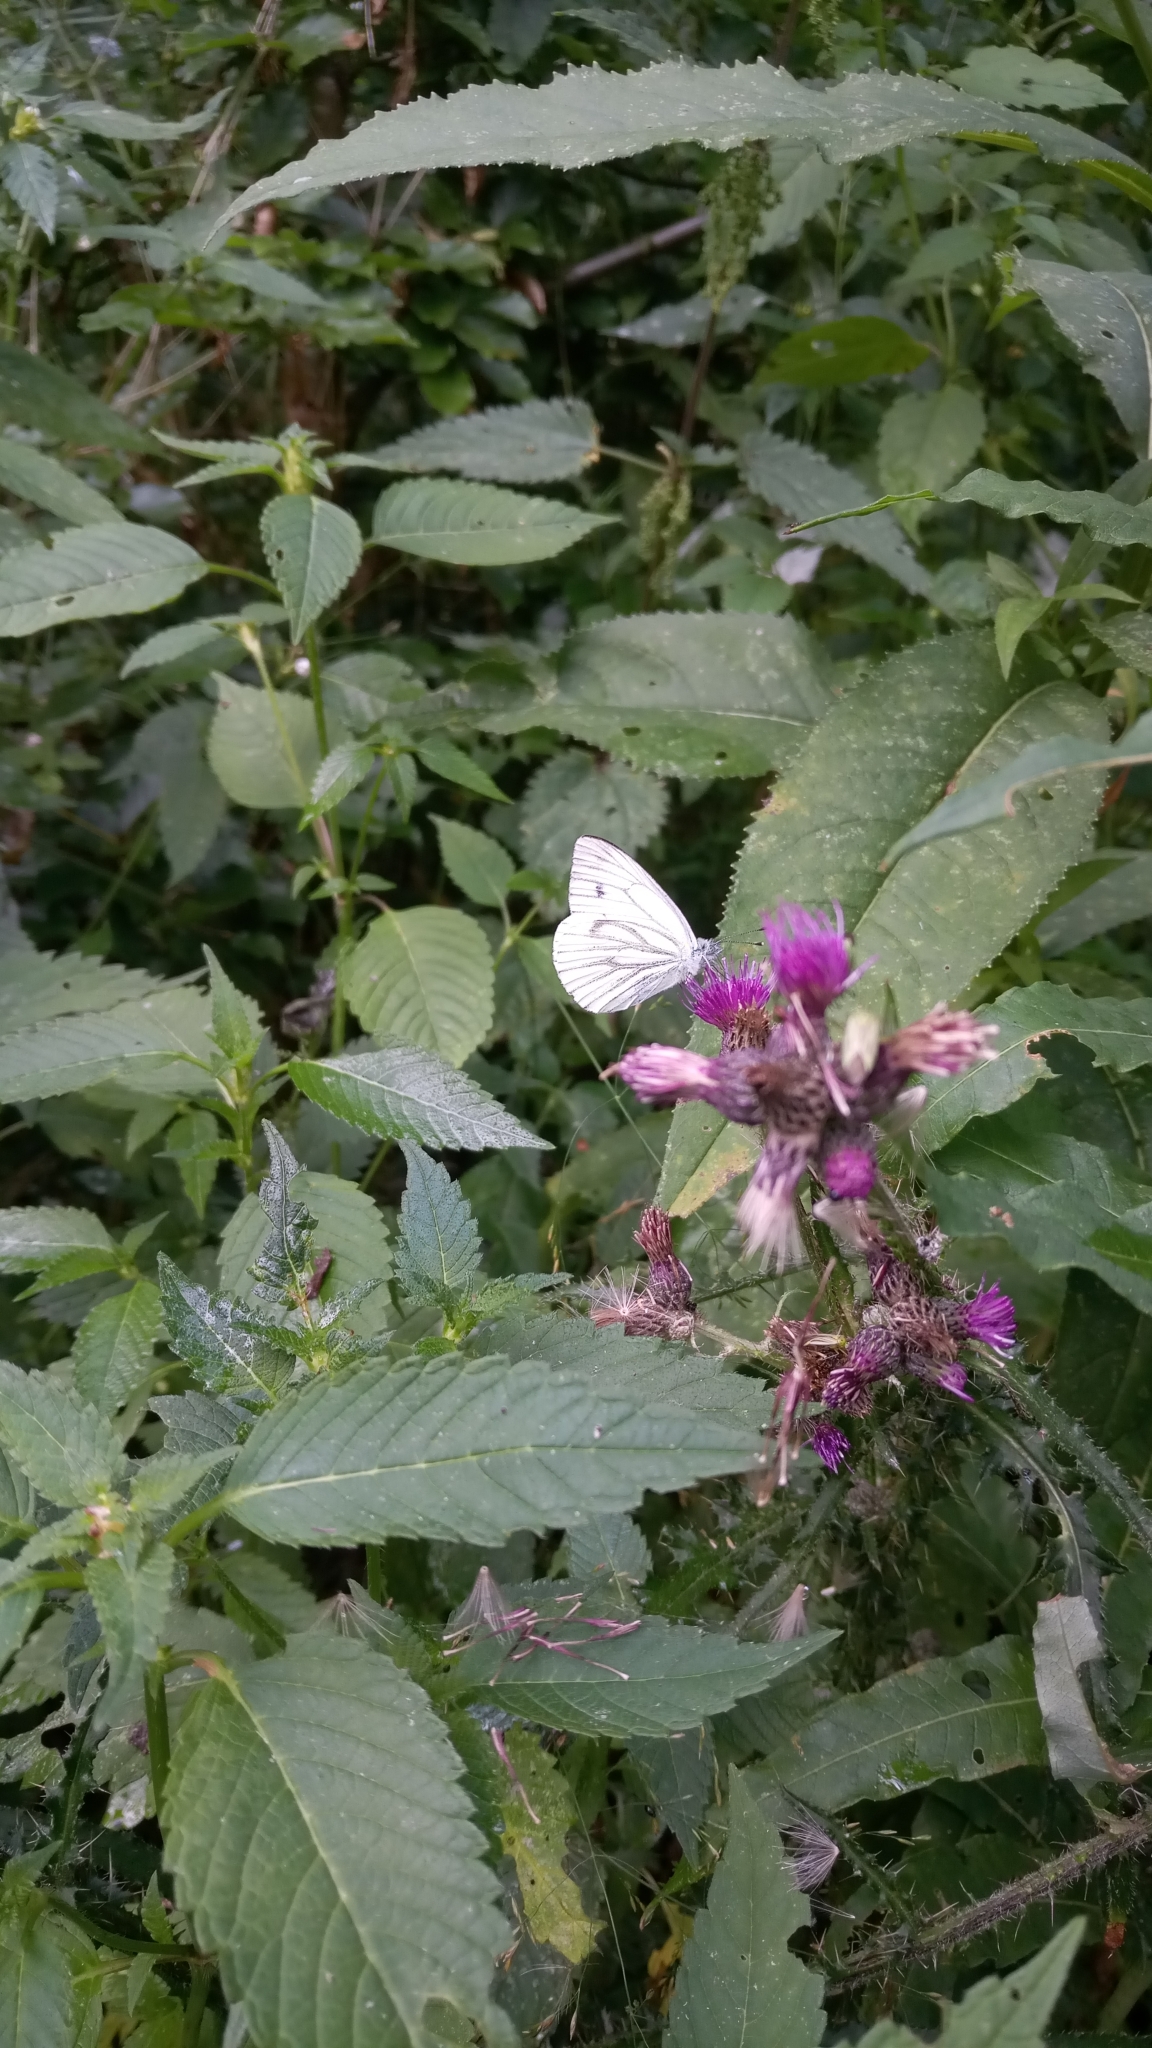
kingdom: Animalia
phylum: Arthropoda
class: Insecta
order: Lepidoptera
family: Pieridae
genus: Pieris
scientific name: Pieris napi
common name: Green-veined white
